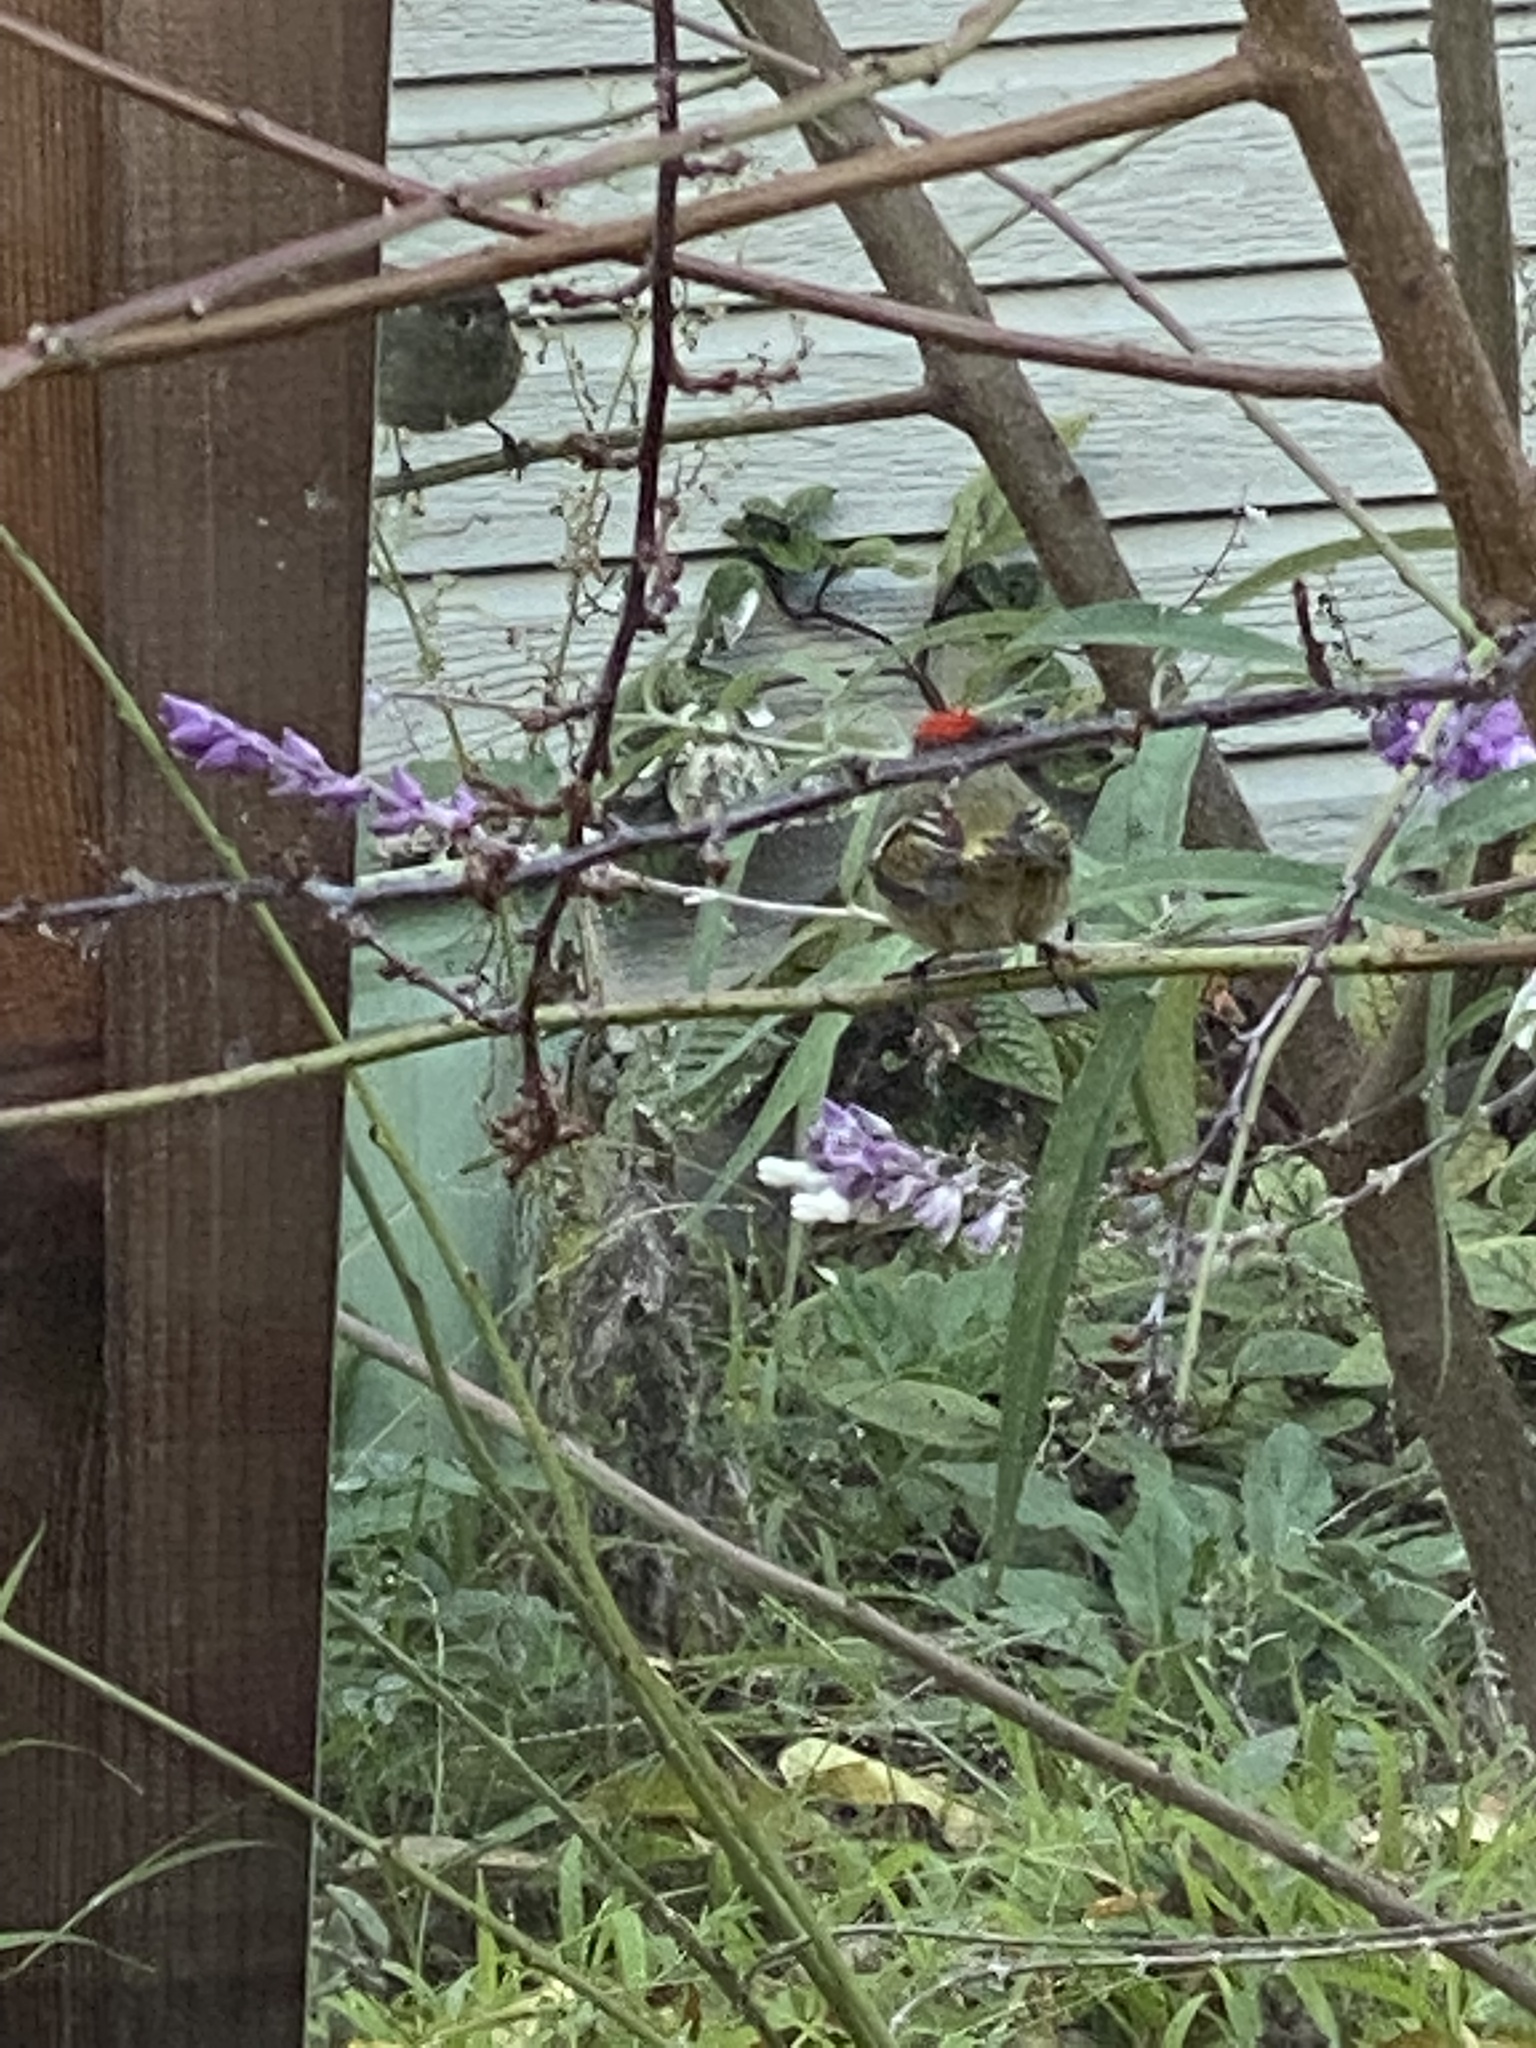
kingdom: Animalia
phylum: Chordata
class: Aves
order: Passeriformes
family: Regulidae
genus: Regulus
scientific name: Regulus calendula
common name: Ruby-crowned kinglet
